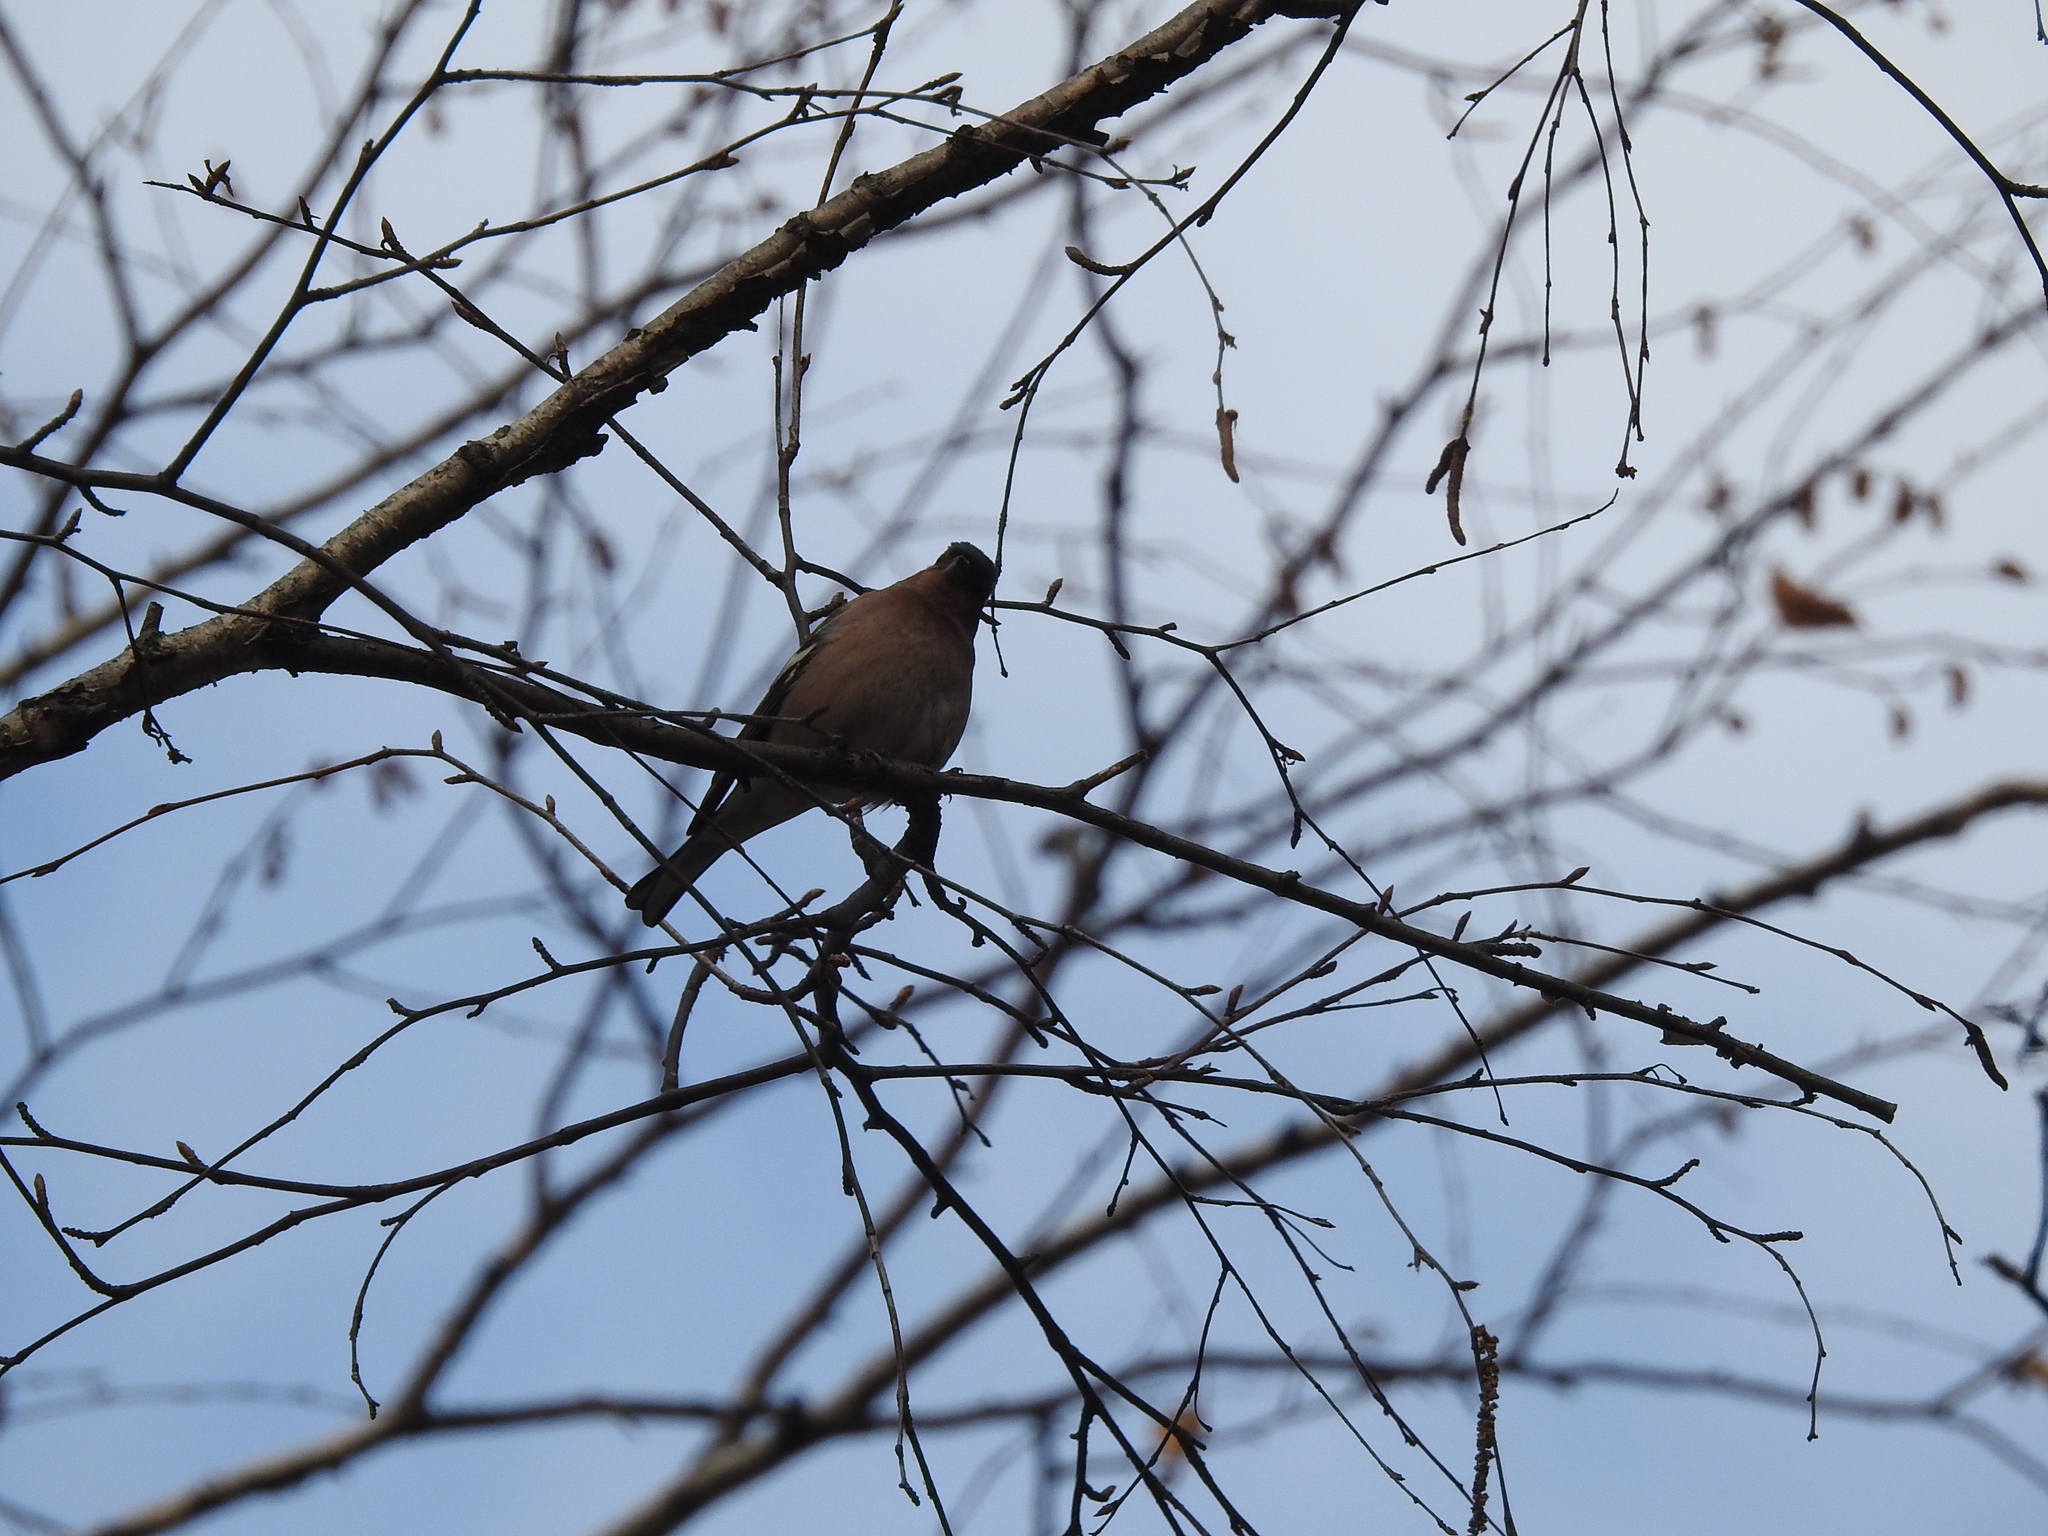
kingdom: Animalia
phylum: Chordata
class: Aves
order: Passeriformes
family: Fringillidae
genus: Fringilla
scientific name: Fringilla coelebs
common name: Common chaffinch
